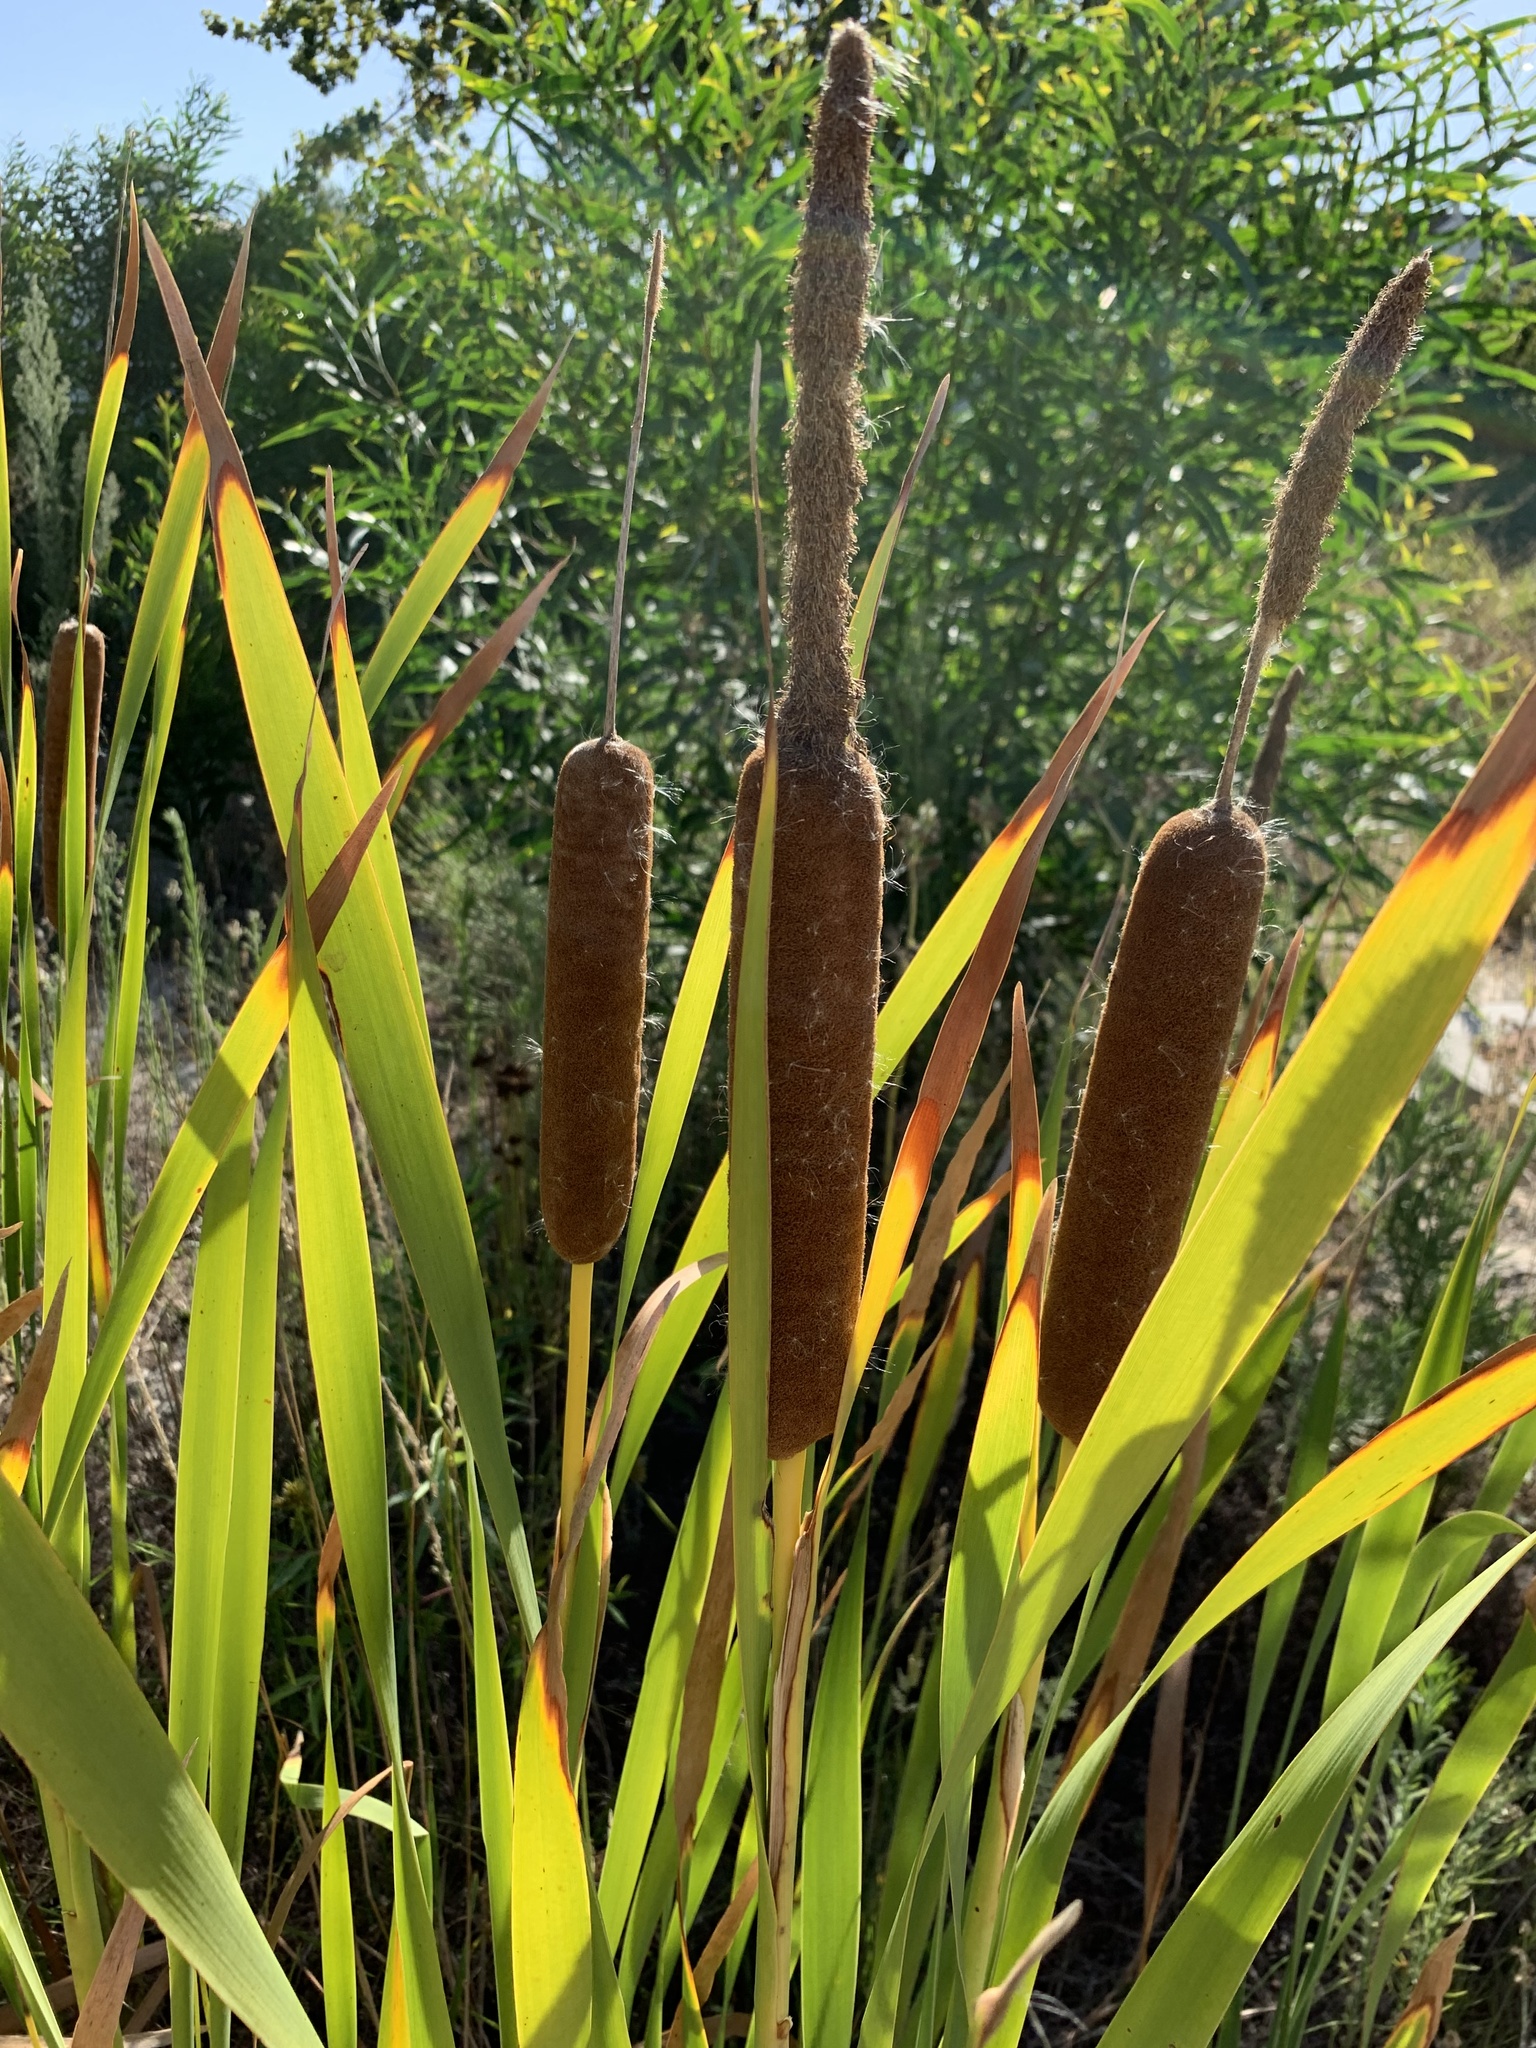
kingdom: Plantae
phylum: Tracheophyta
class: Liliopsida
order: Poales
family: Typhaceae
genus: Typha
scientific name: Typha capensis
